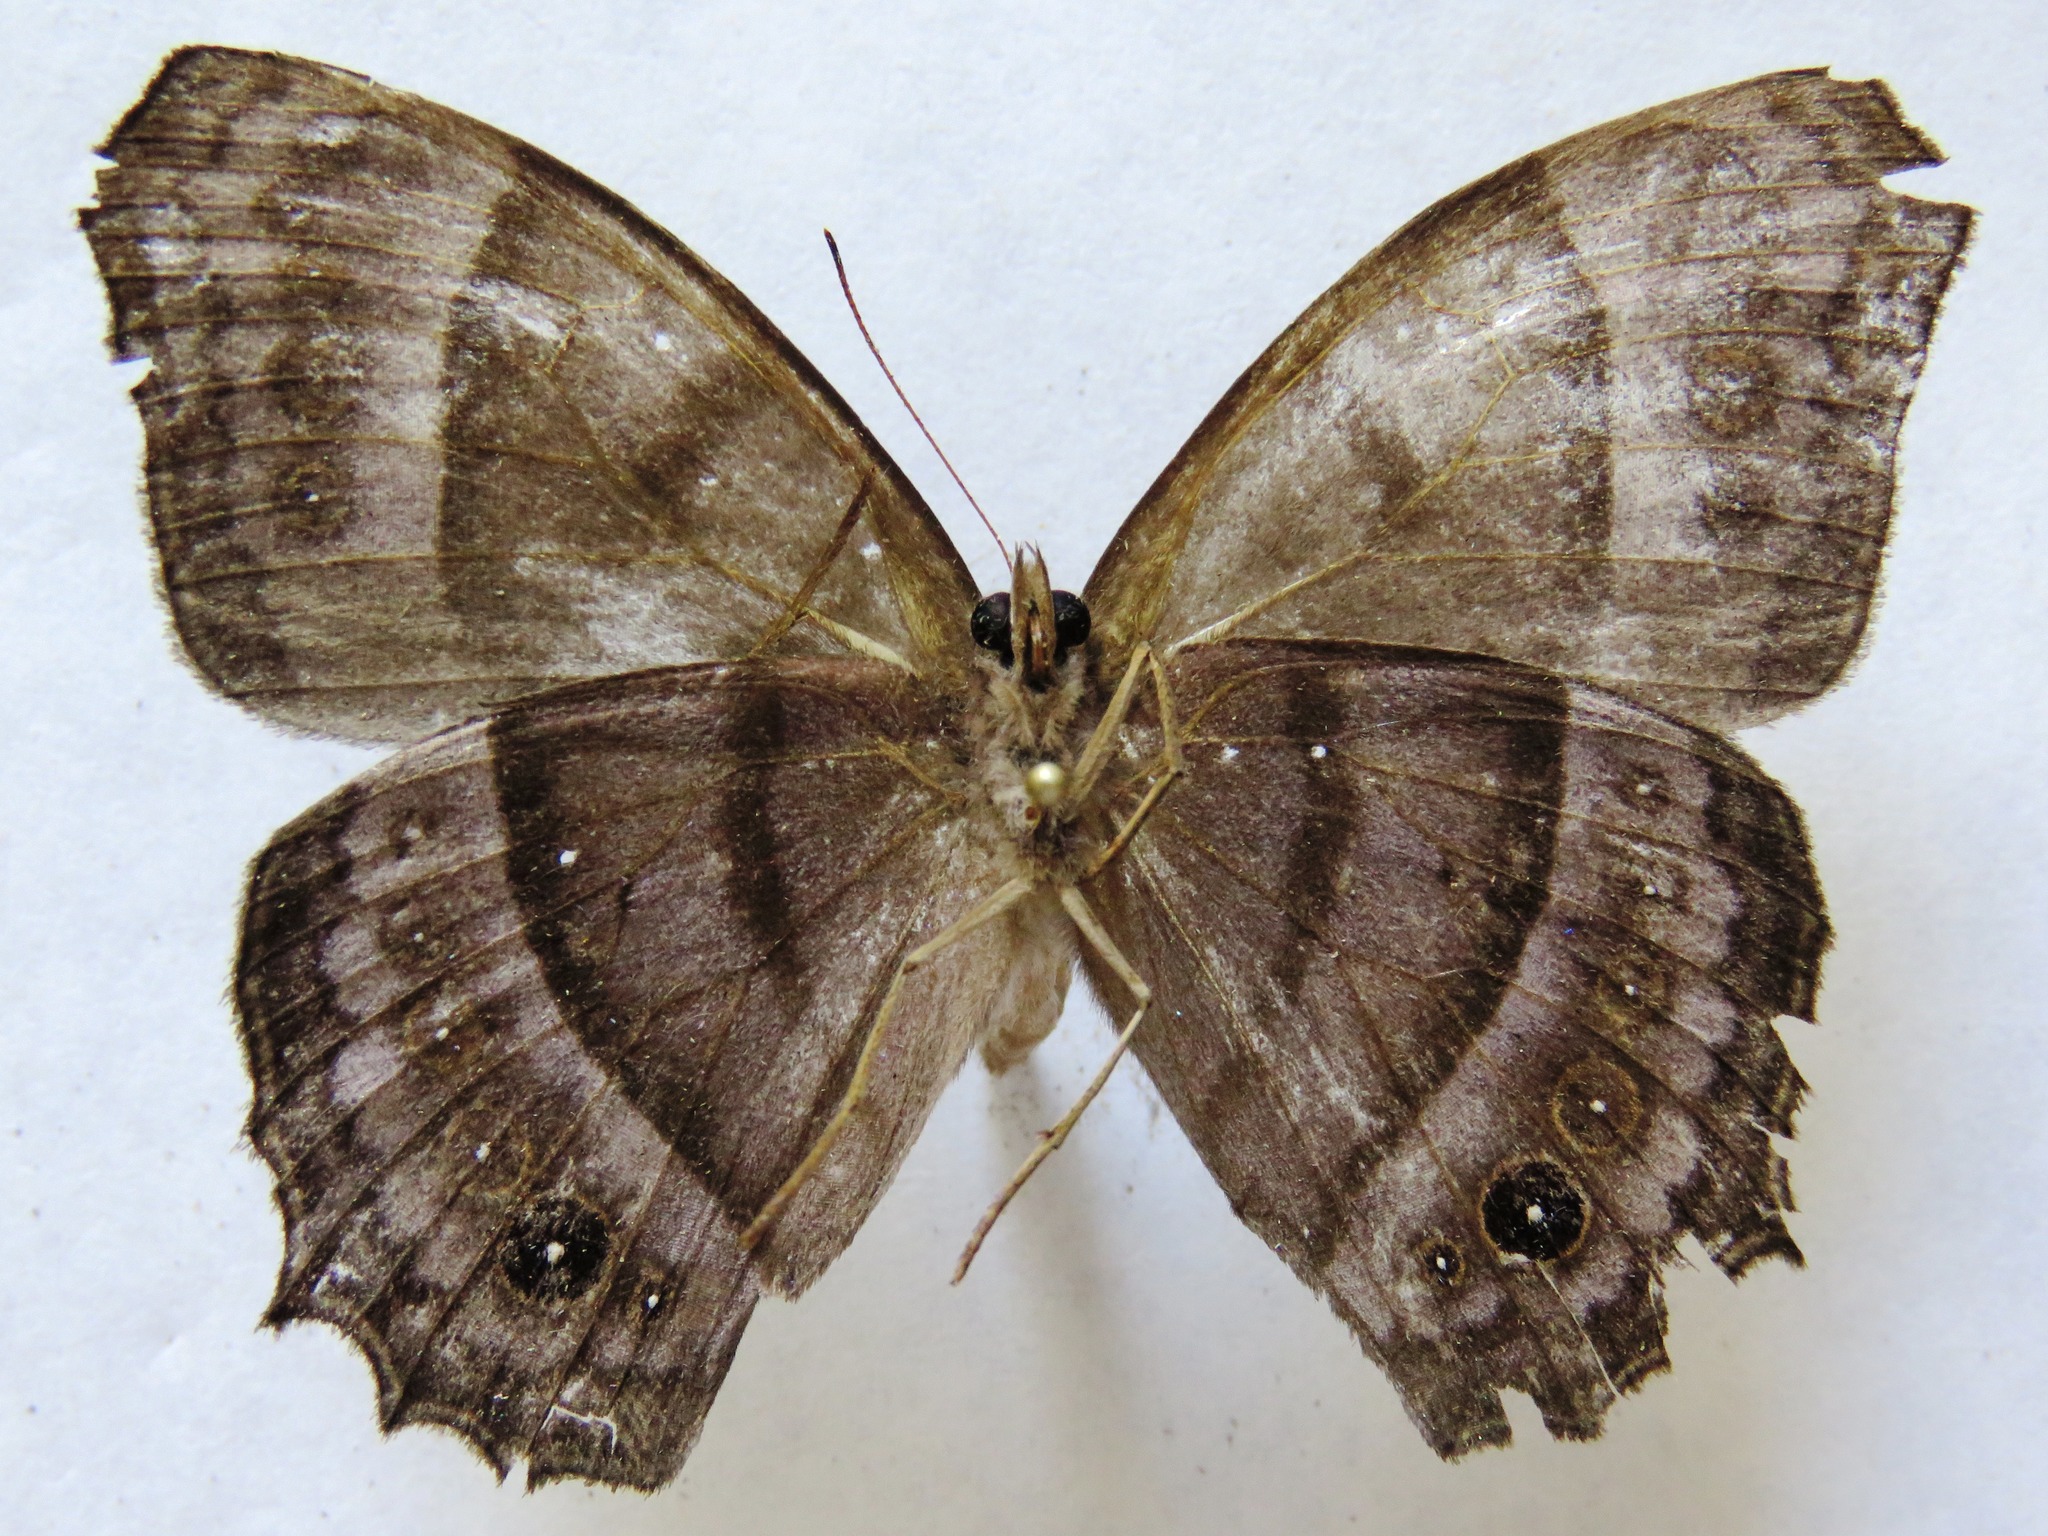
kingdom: Animalia
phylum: Arthropoda
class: Insecta
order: Lepidoptera
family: Nymphalidae
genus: Taygetis
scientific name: Taygetis inconspicua
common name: Inconspicuous satyr
